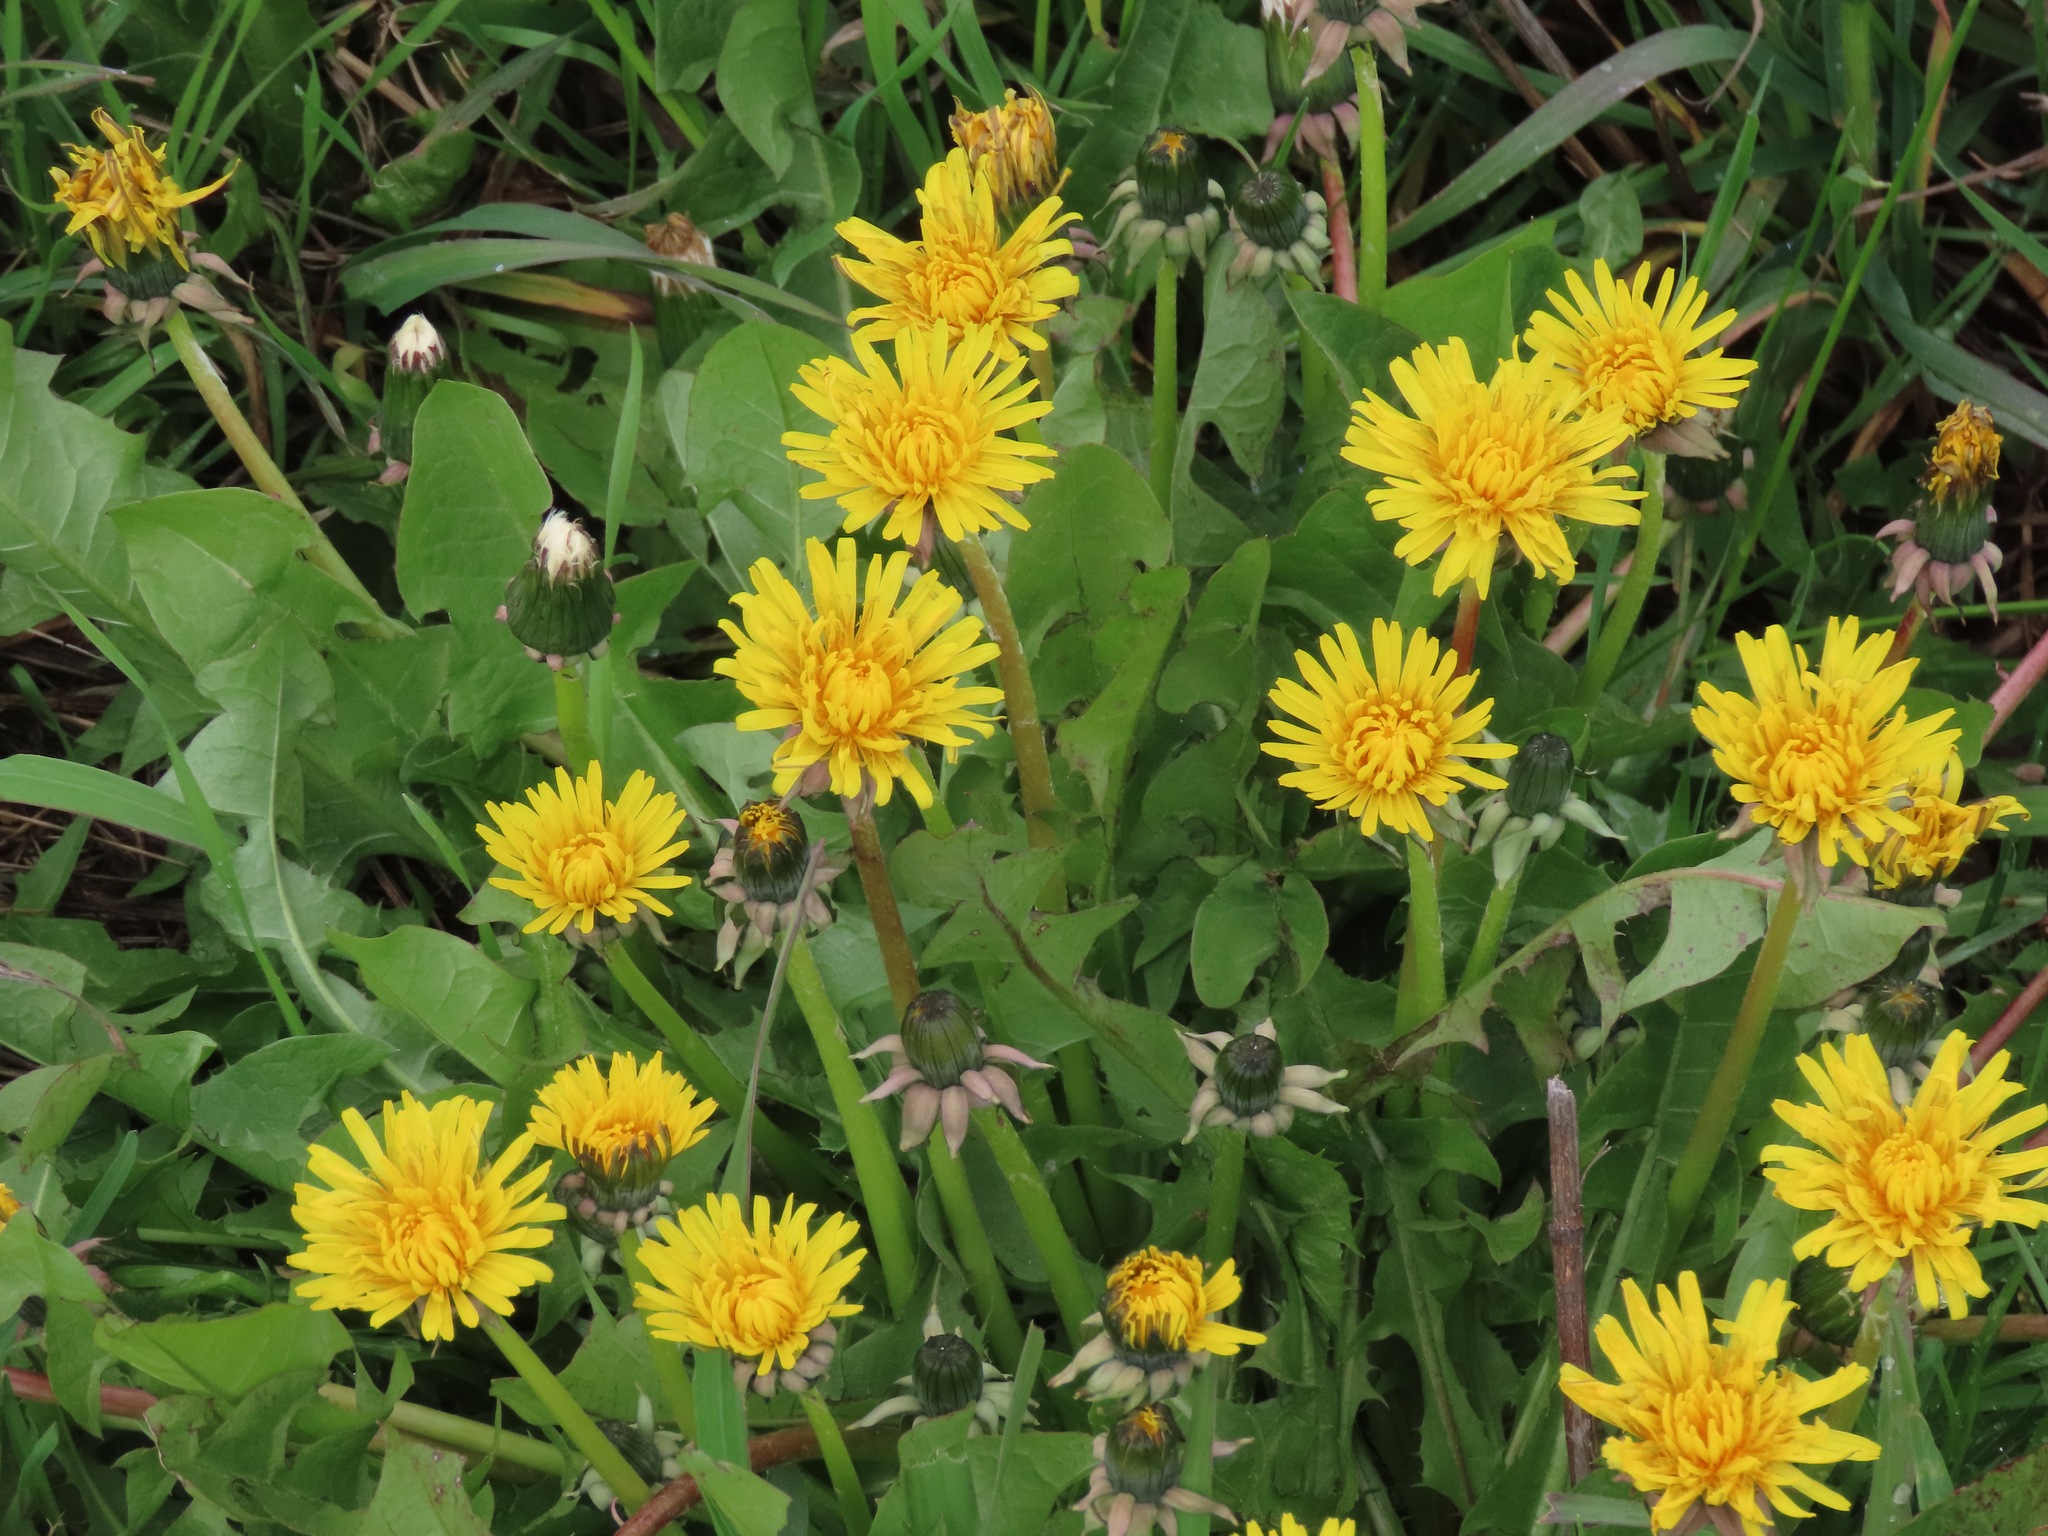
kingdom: Plantae
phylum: Tracheophyta
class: Magnoliopsida
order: Asterales
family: Asteraceae
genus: Taraxacum
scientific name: Taraxacum officinale
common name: Common dandelion
